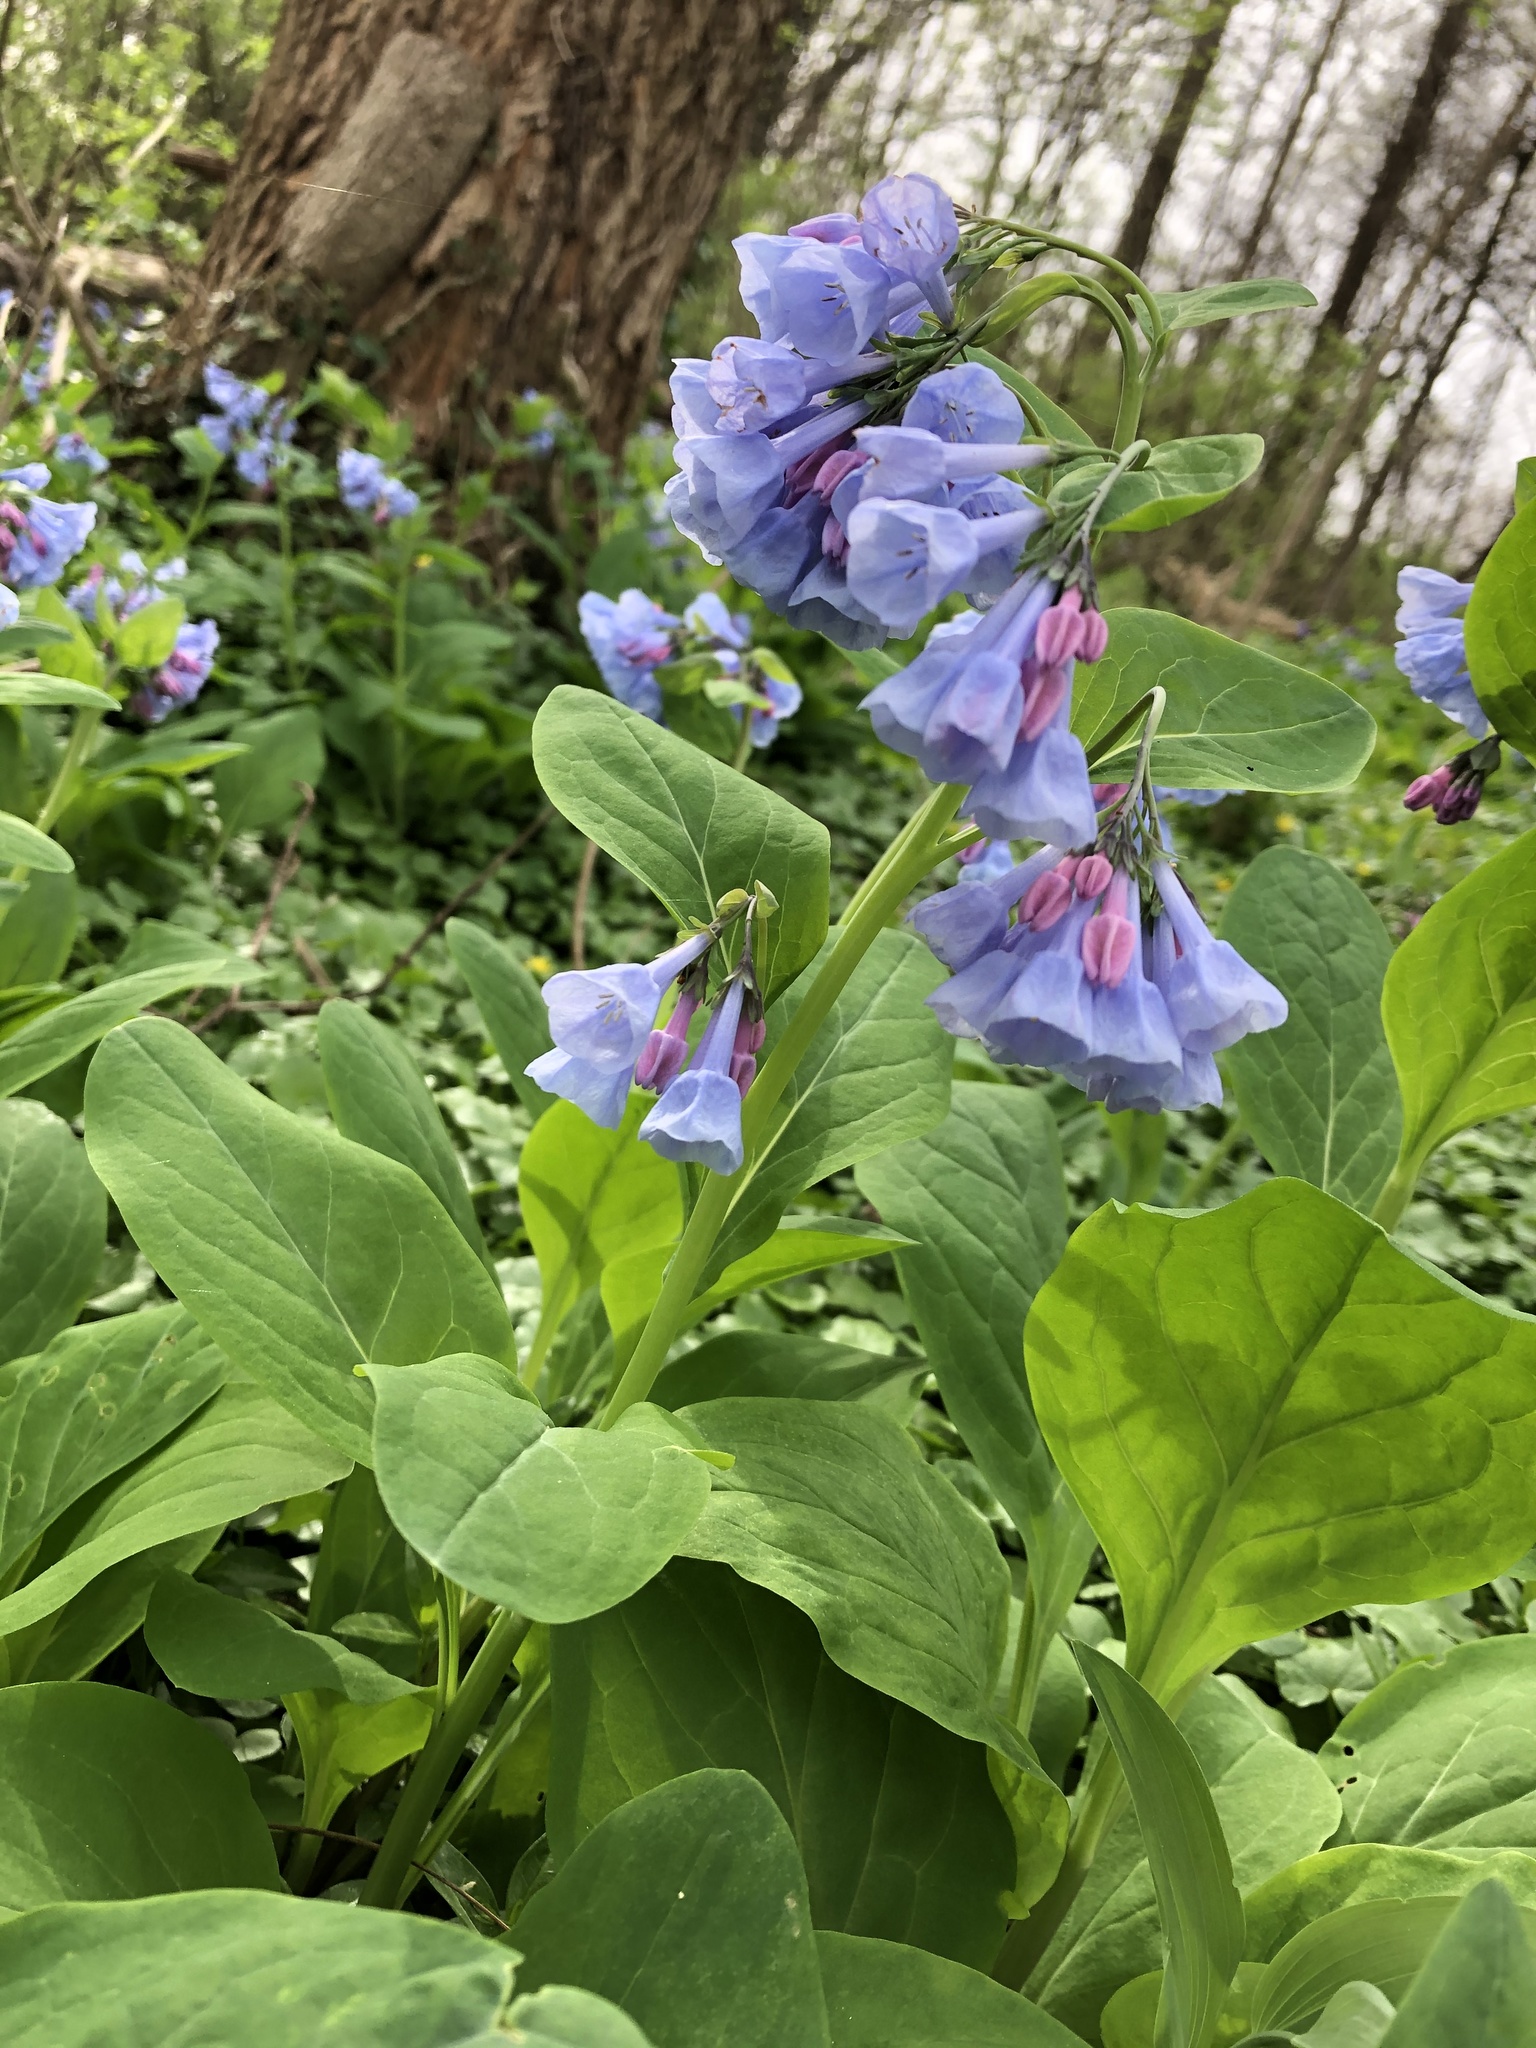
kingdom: Plantae
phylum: Tracheophyta
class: Magnoliopsida
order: Boraginales
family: Boraginaceae
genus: Mertensia
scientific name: Mertensia virginica
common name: Virginia bluebells
